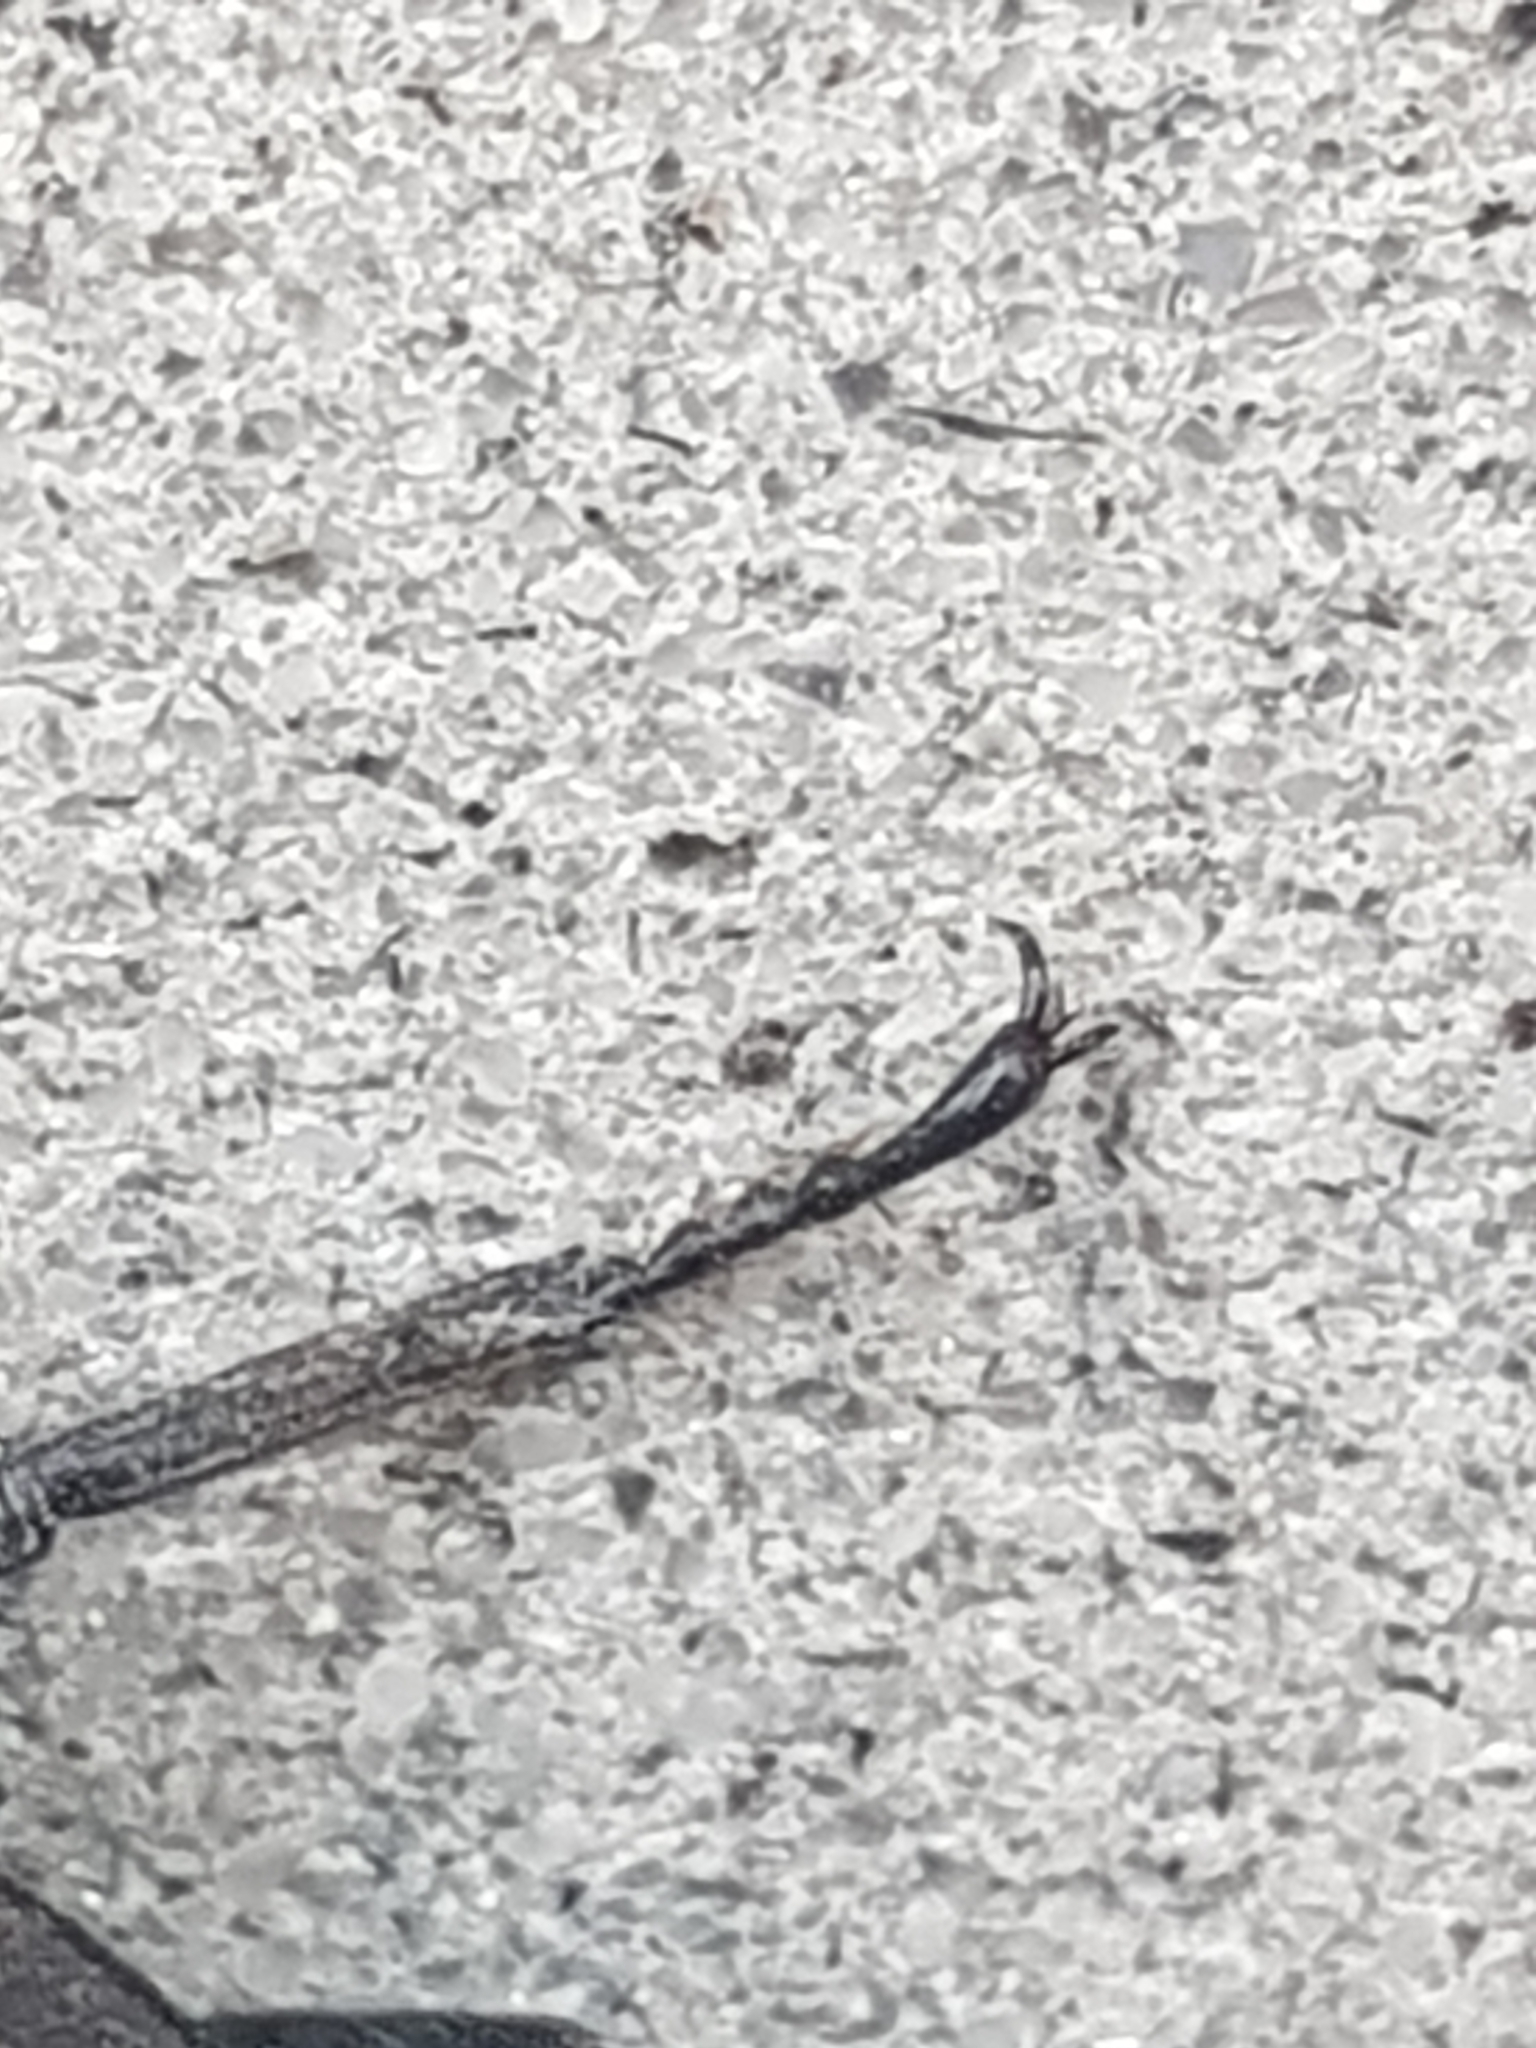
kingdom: Animalia
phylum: Arthropoda
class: Insecta
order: Coleoptera
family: Lucanidae
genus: Dorcus
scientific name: Dorcus parallelipipedus
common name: Lesser stag beetle
